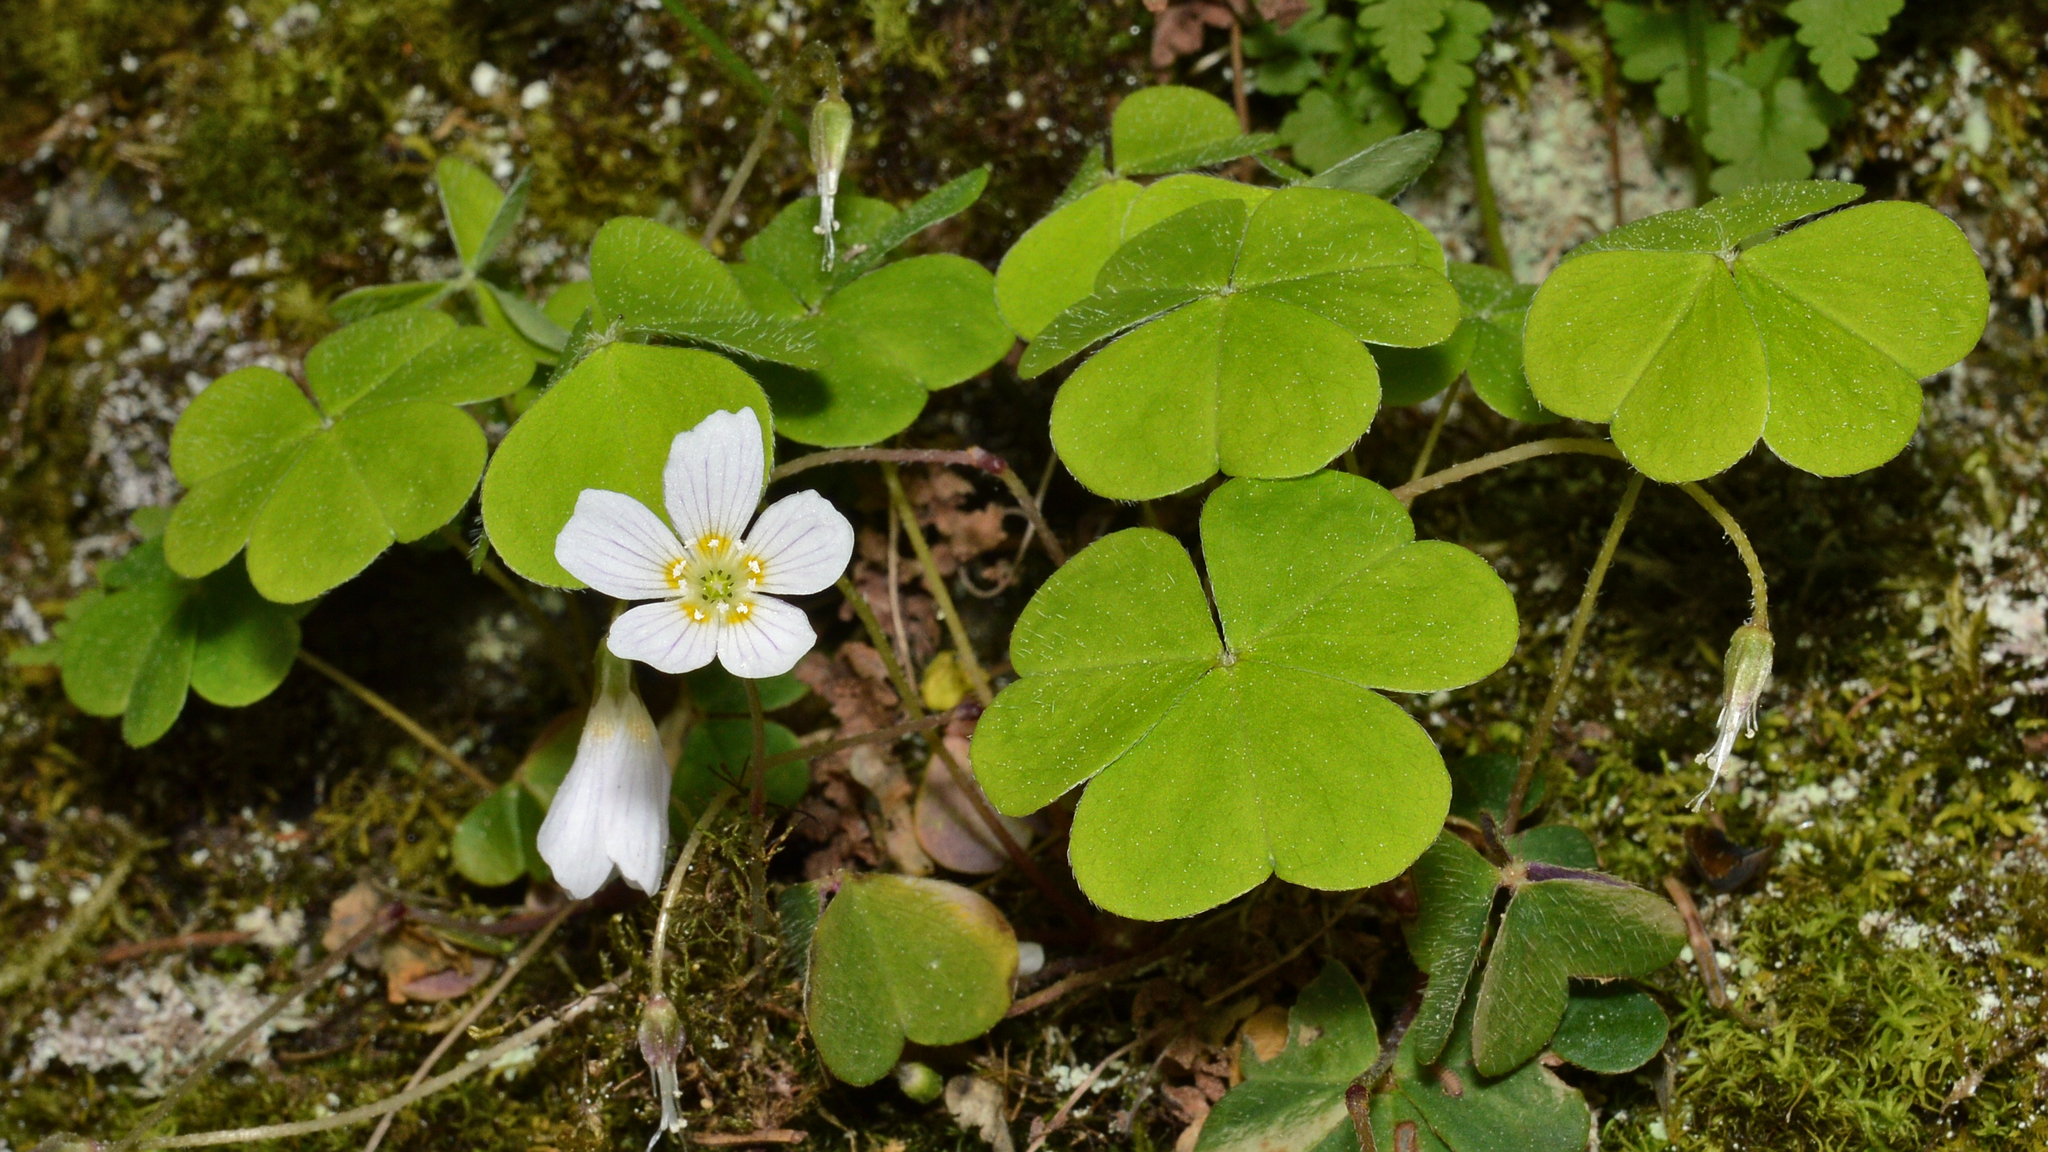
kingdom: Plantae
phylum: Tracheophyta
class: Magnoliopsida
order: Oxalidales
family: Oxalidaceae
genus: Oxalis
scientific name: Oxalis acetosella
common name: Wood-sorrel
